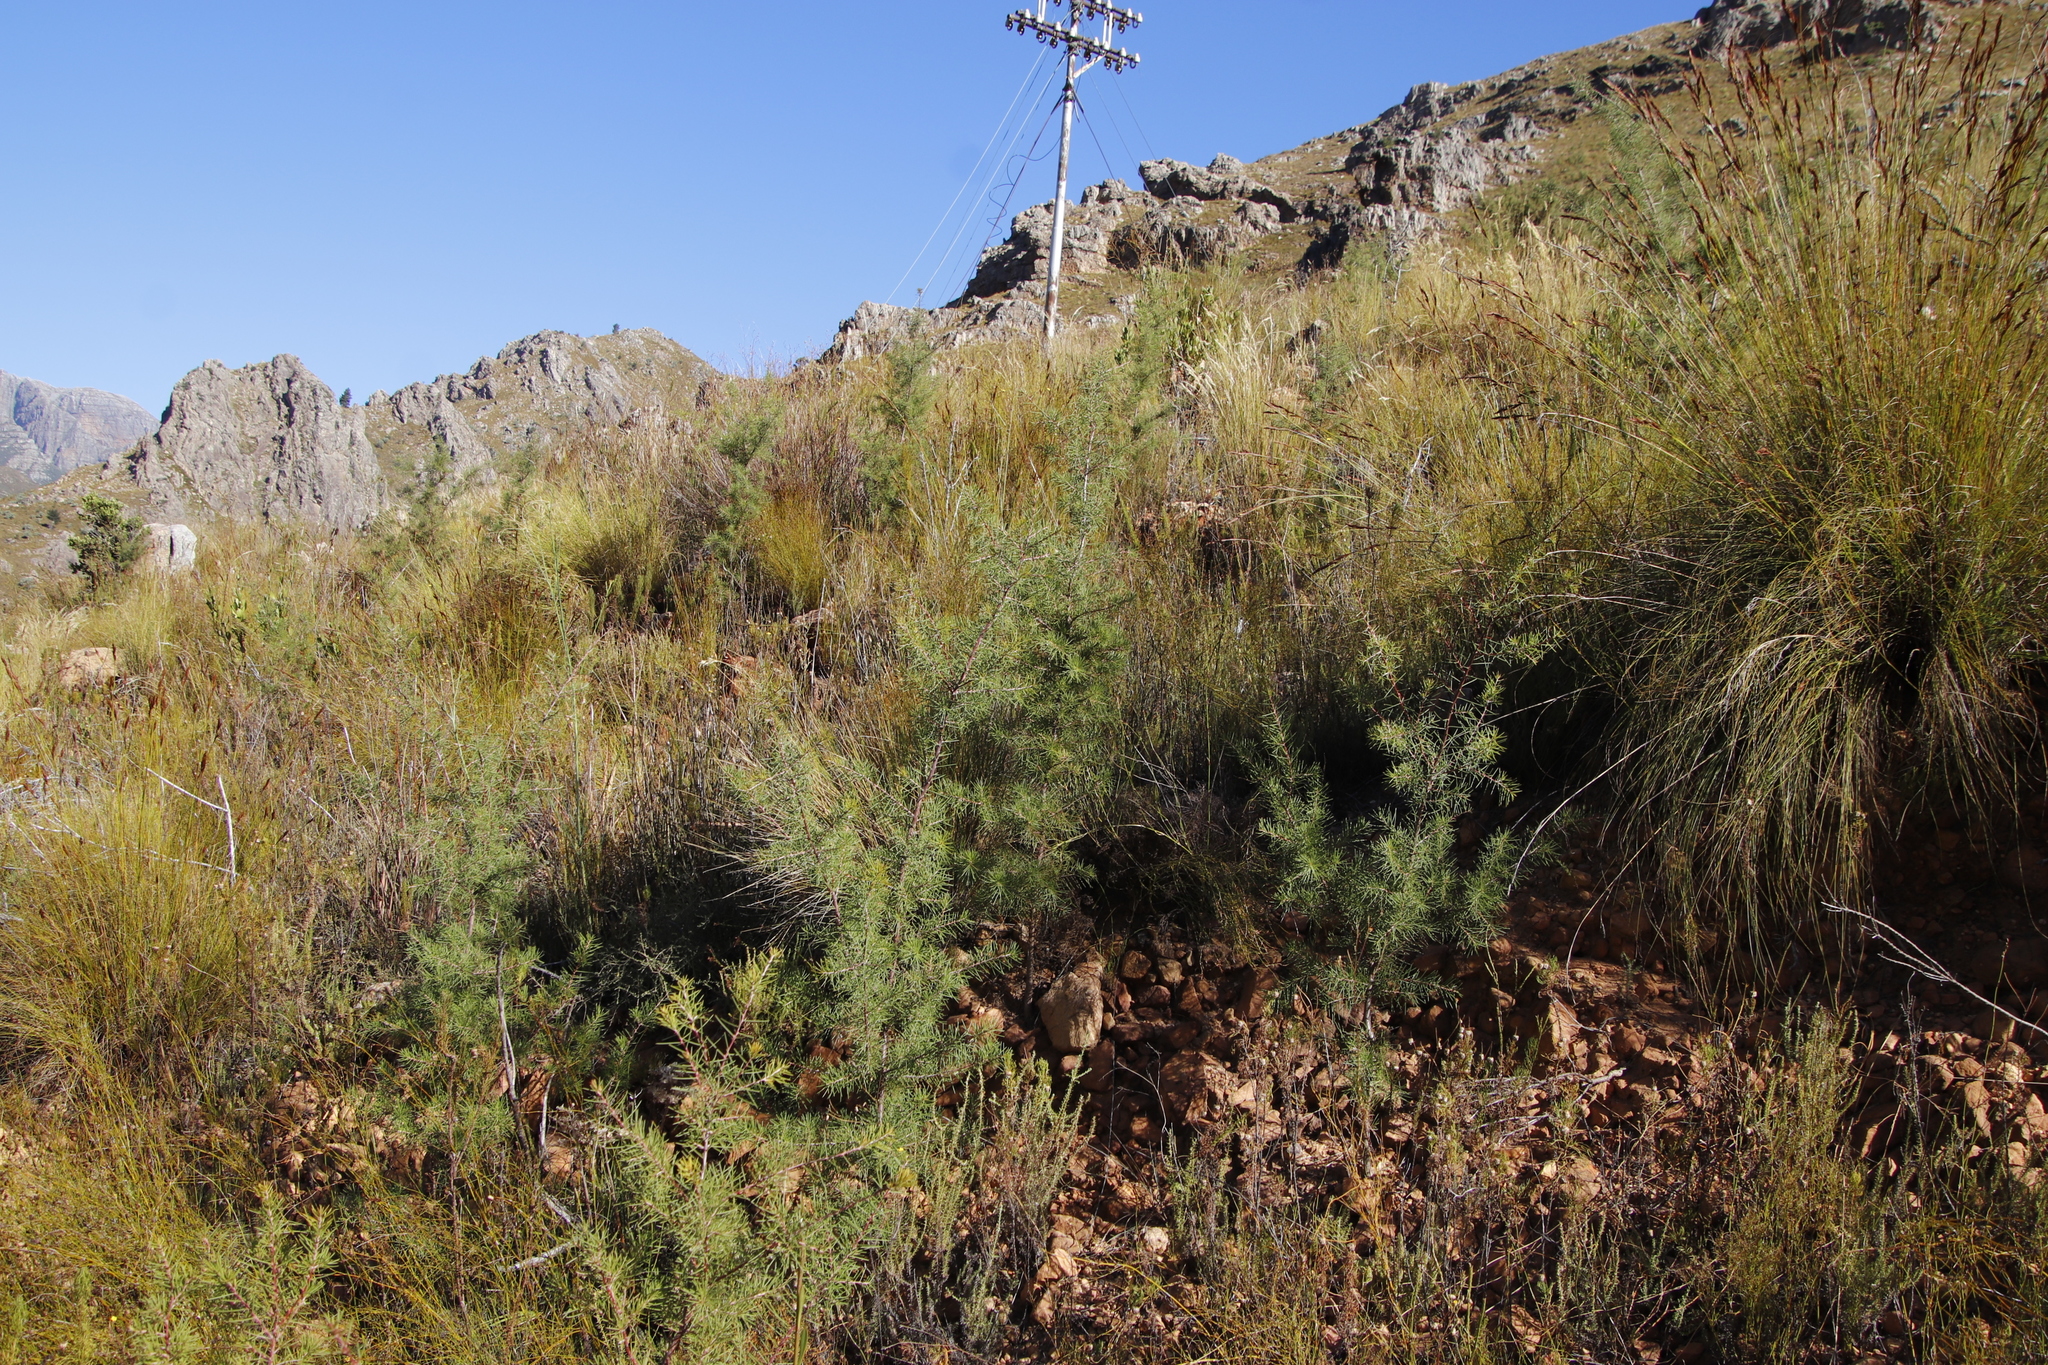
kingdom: Plantae
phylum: Tracheophyta
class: Magnoliopsida
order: Proteales
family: Proteaceae
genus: Hakea
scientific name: Hakea sericea
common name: Needle bush
